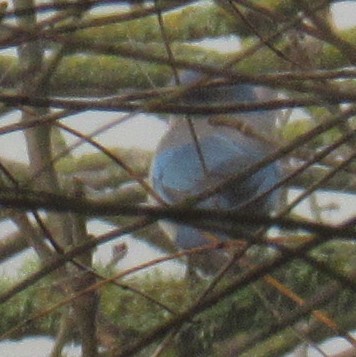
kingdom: Animalia
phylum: Chordata
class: Aves
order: Passeriformes
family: Corvidae
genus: Aphelocoma
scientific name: Aphelocoma californica
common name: California scrub-jay
